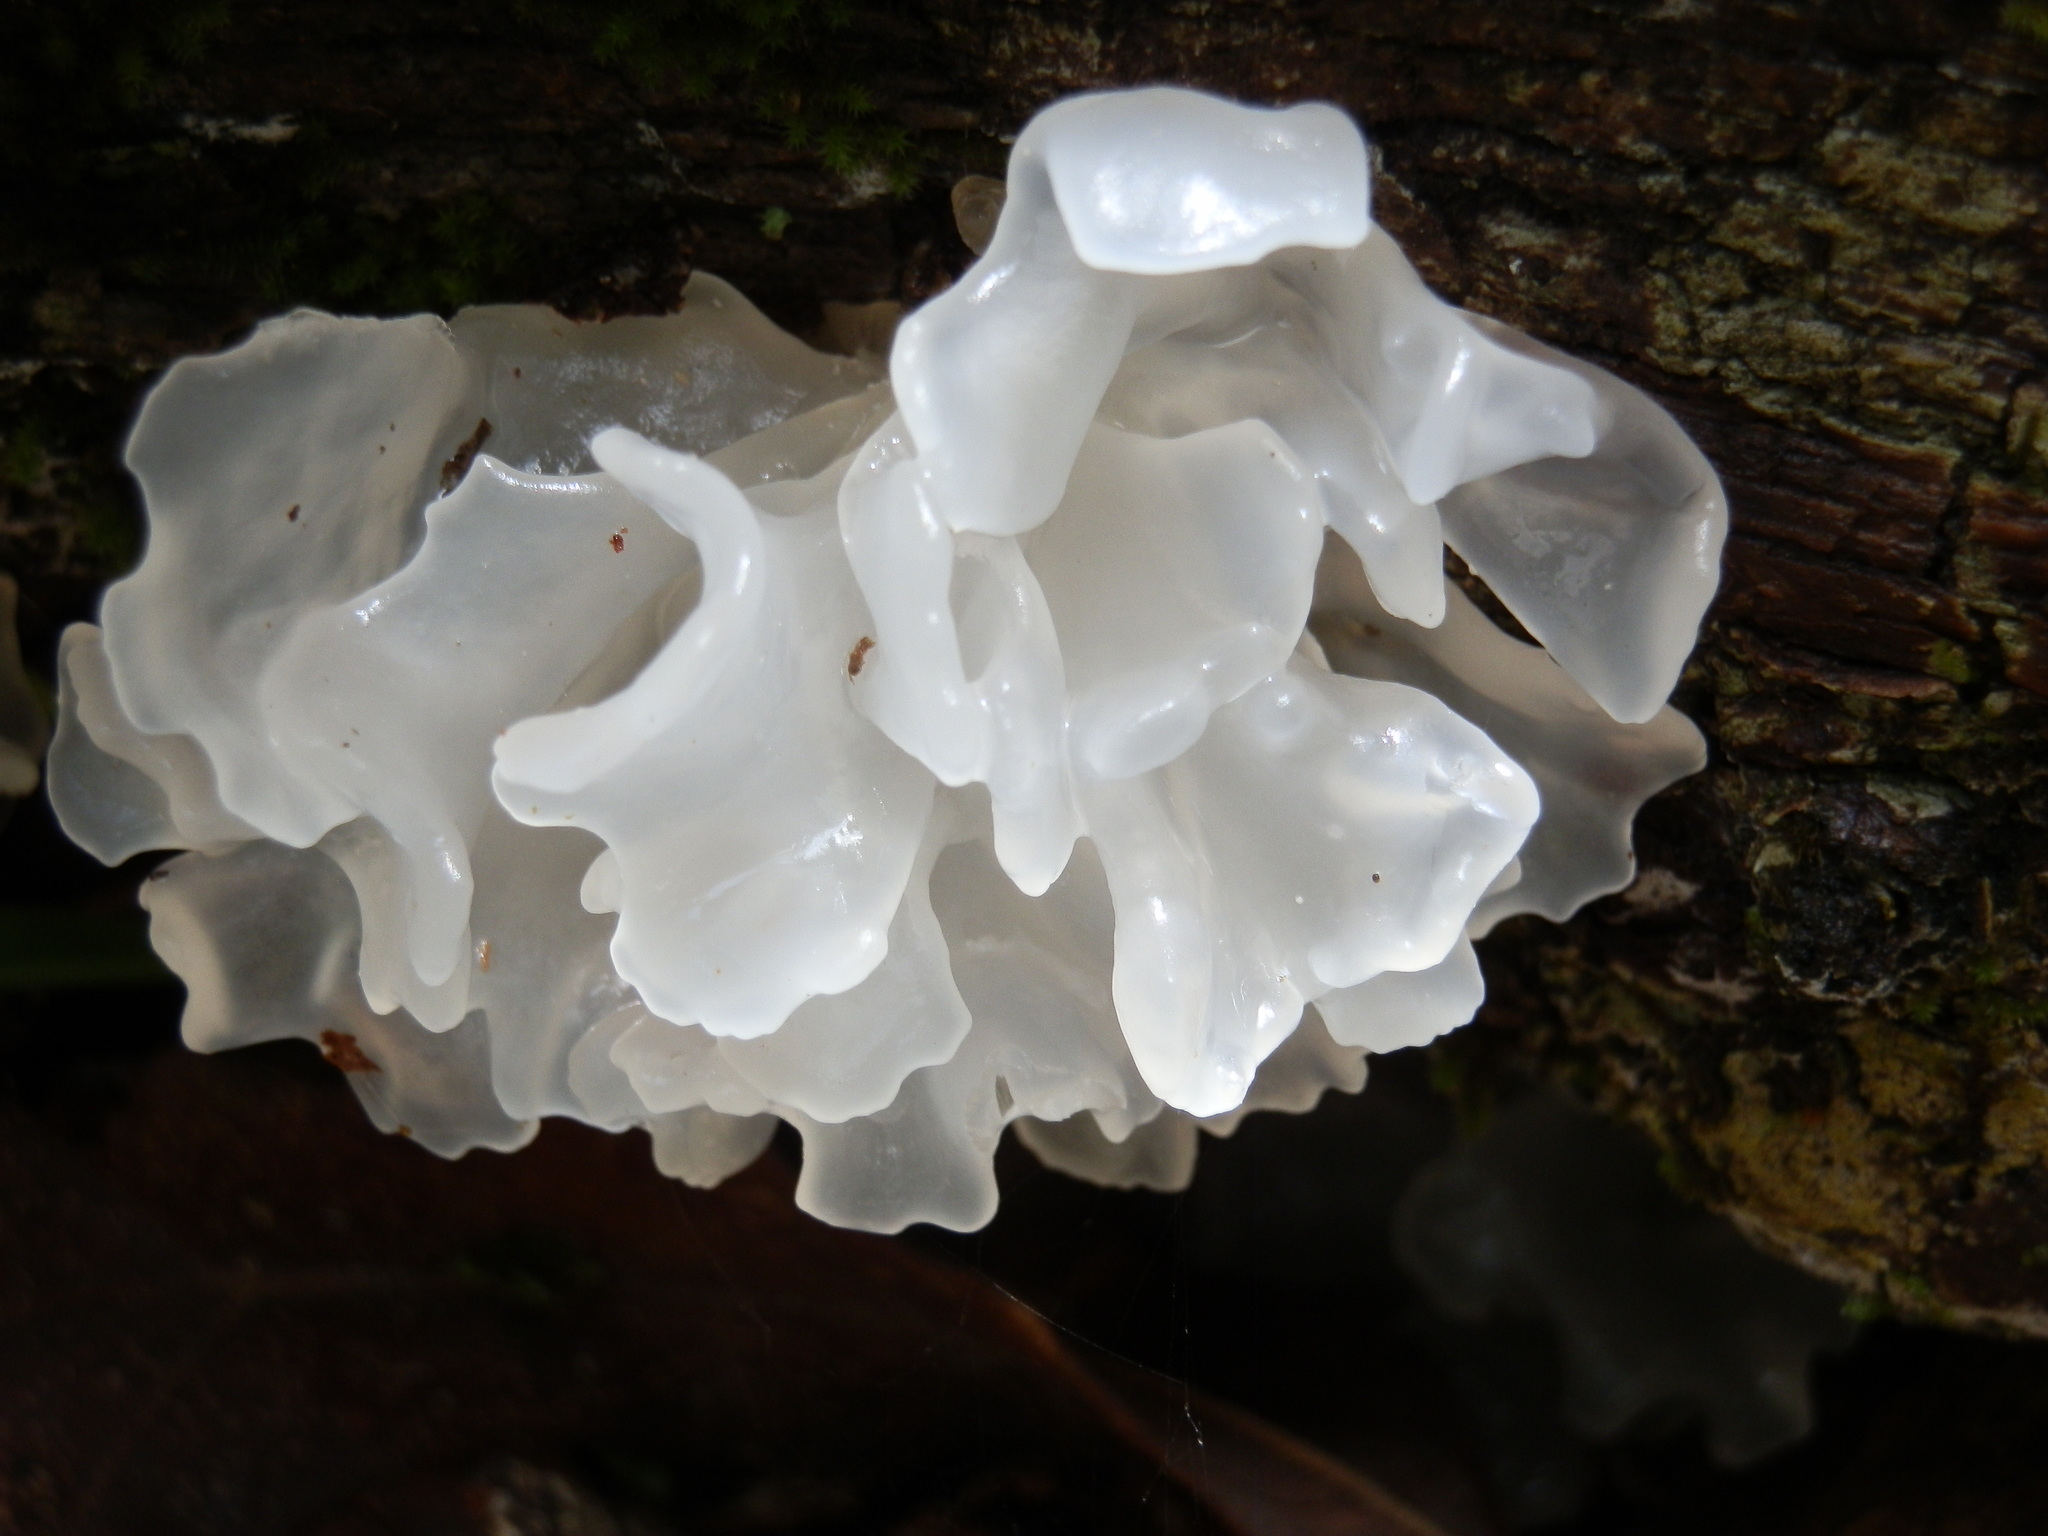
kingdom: Fungi
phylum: Basidiomycota
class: Tremellomycetes
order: Tremellales
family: Tremellaceae
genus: Tremella
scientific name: Tremella fuciformis
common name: Snow fungus
